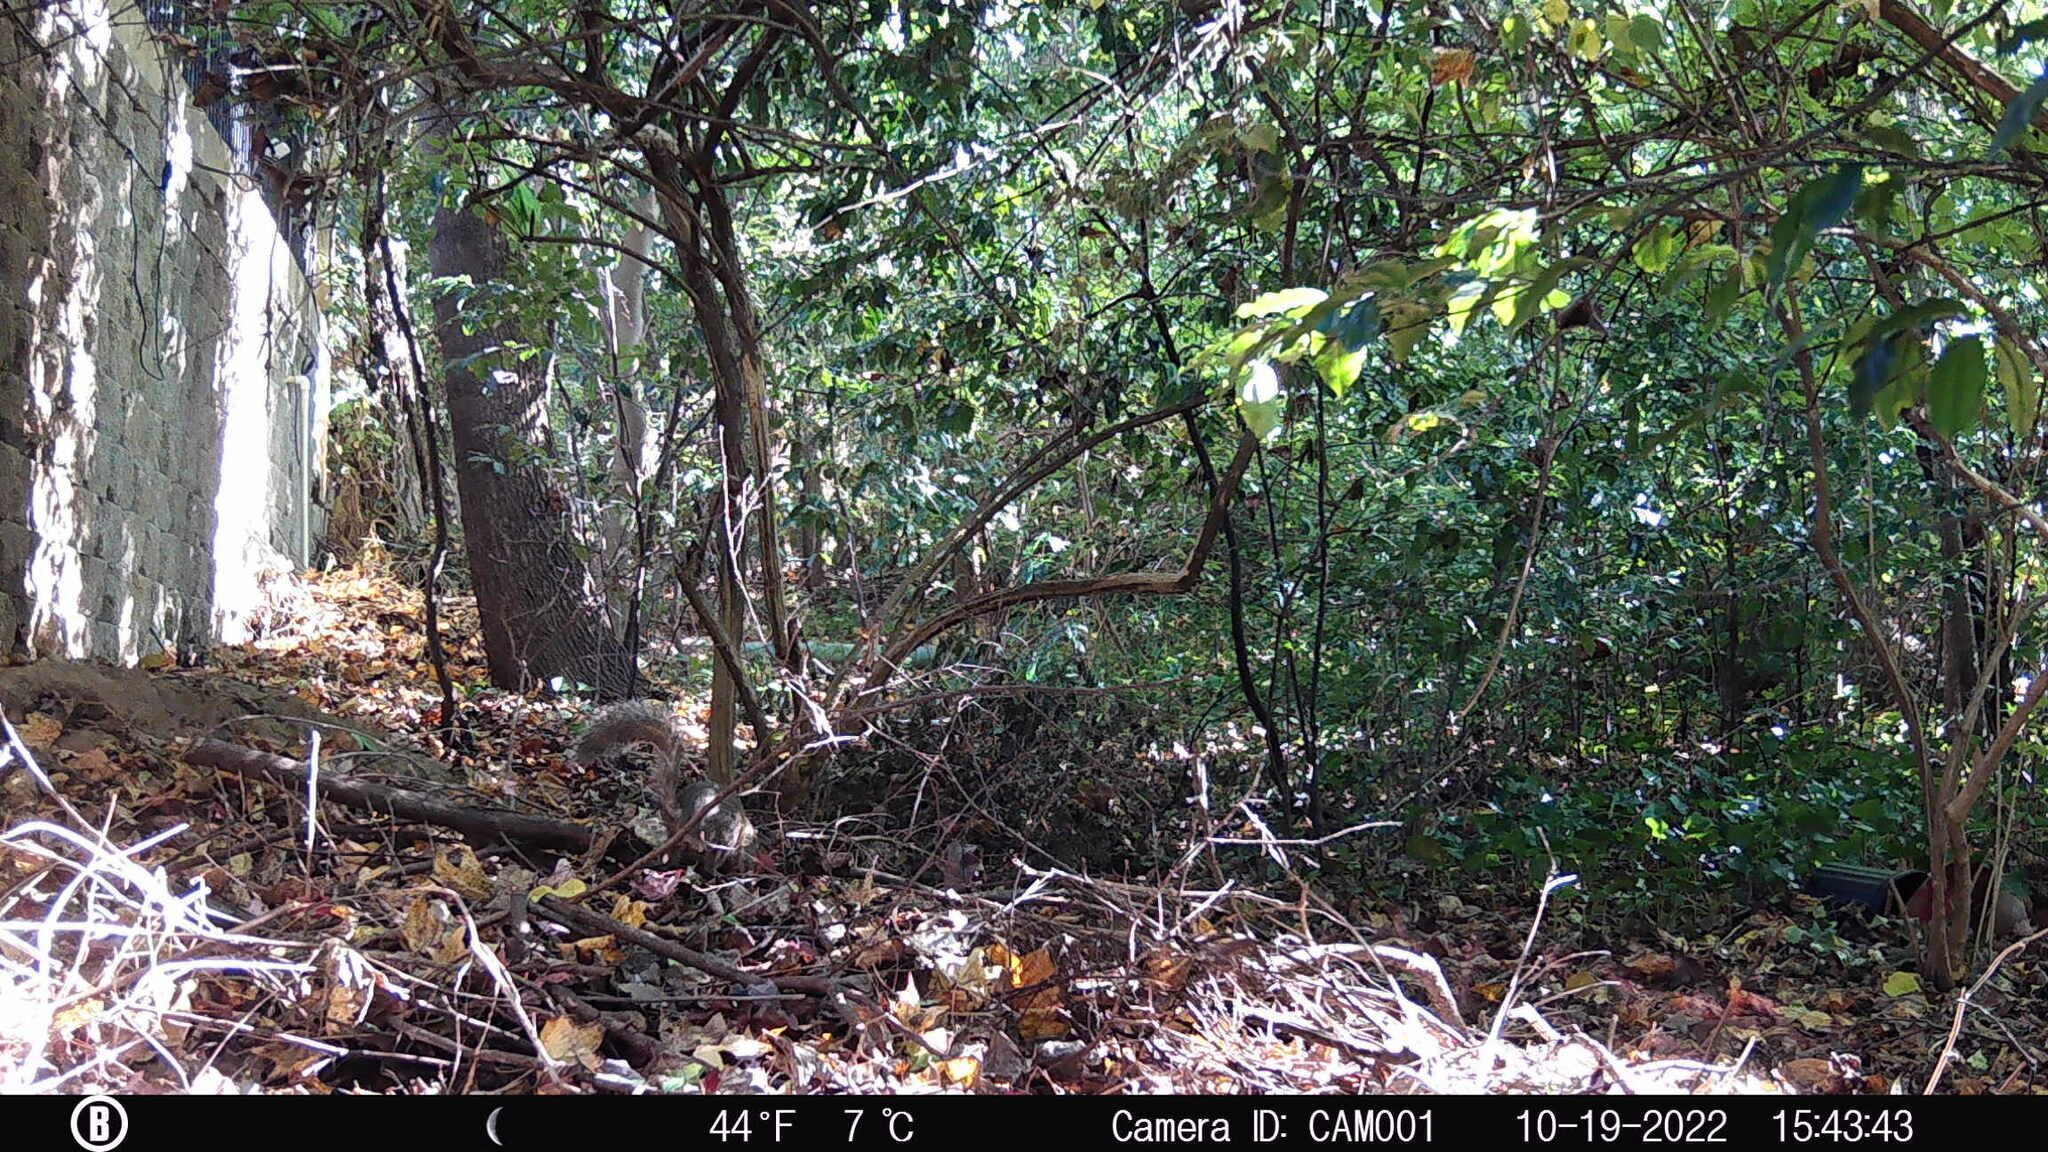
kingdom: Animalia
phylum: Chordata
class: Mammalia
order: Rodentia
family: Sciuridae
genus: Sciurus
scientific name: Sciurus carolinensis
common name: Eastern gray squirrel
